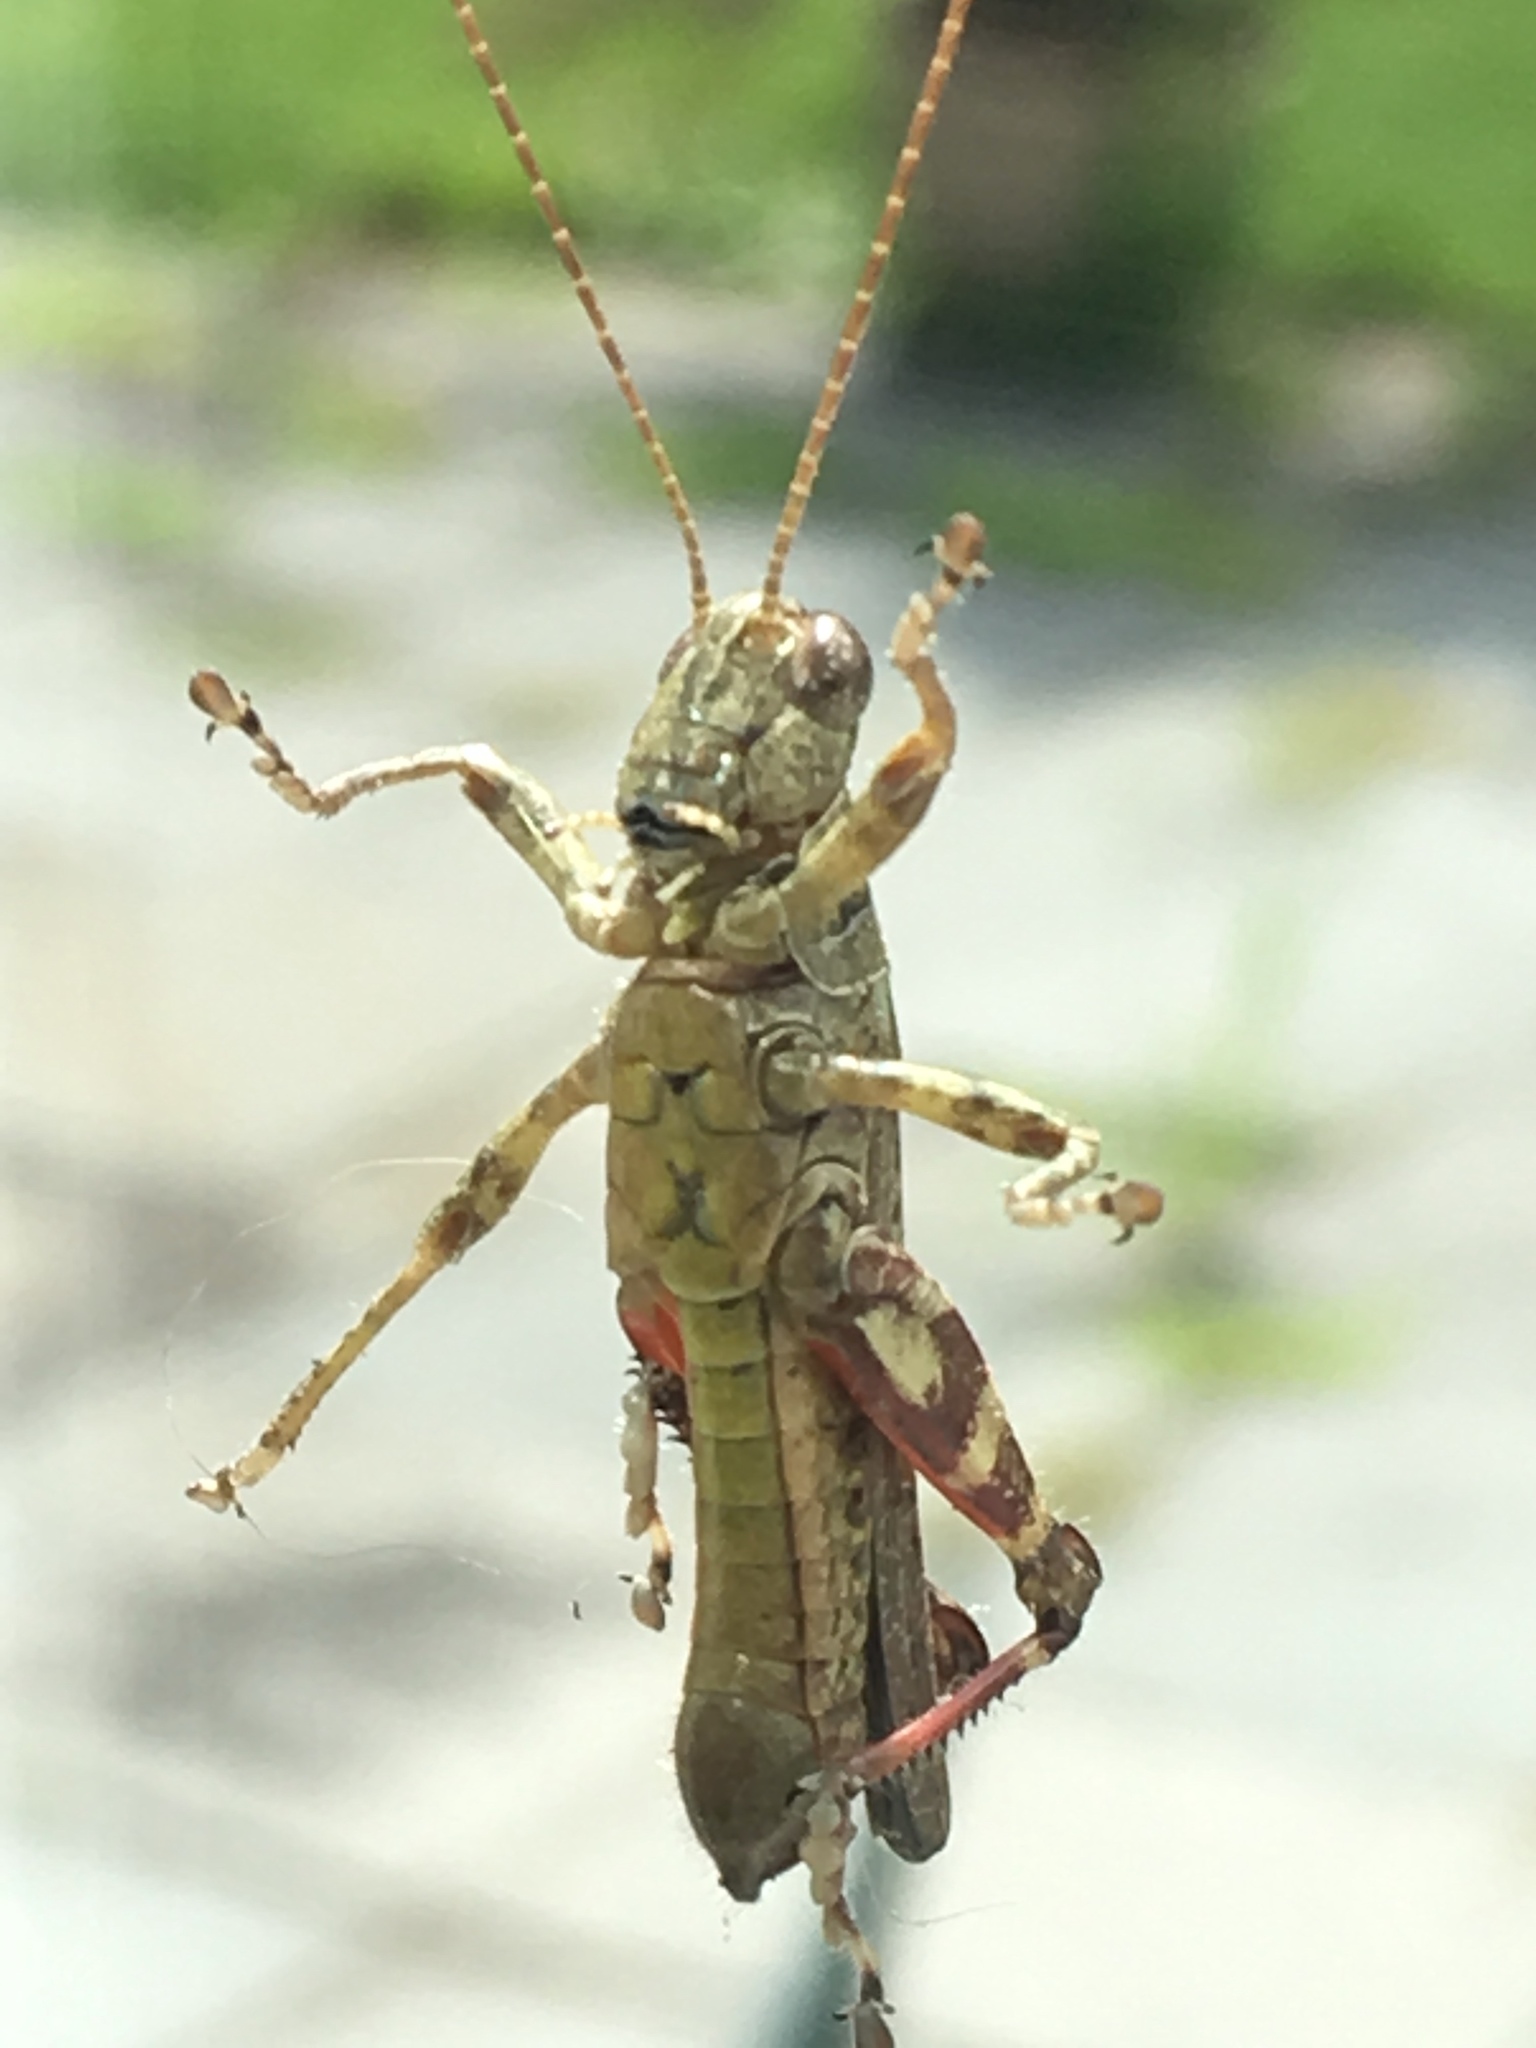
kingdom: Animalia
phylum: Arthropoda
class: Insecta
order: Orthoptera
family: Acrididae
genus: Melanoplus
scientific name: Melanoplus punctulatus
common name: Pine-tree spur-throat grasshopper
